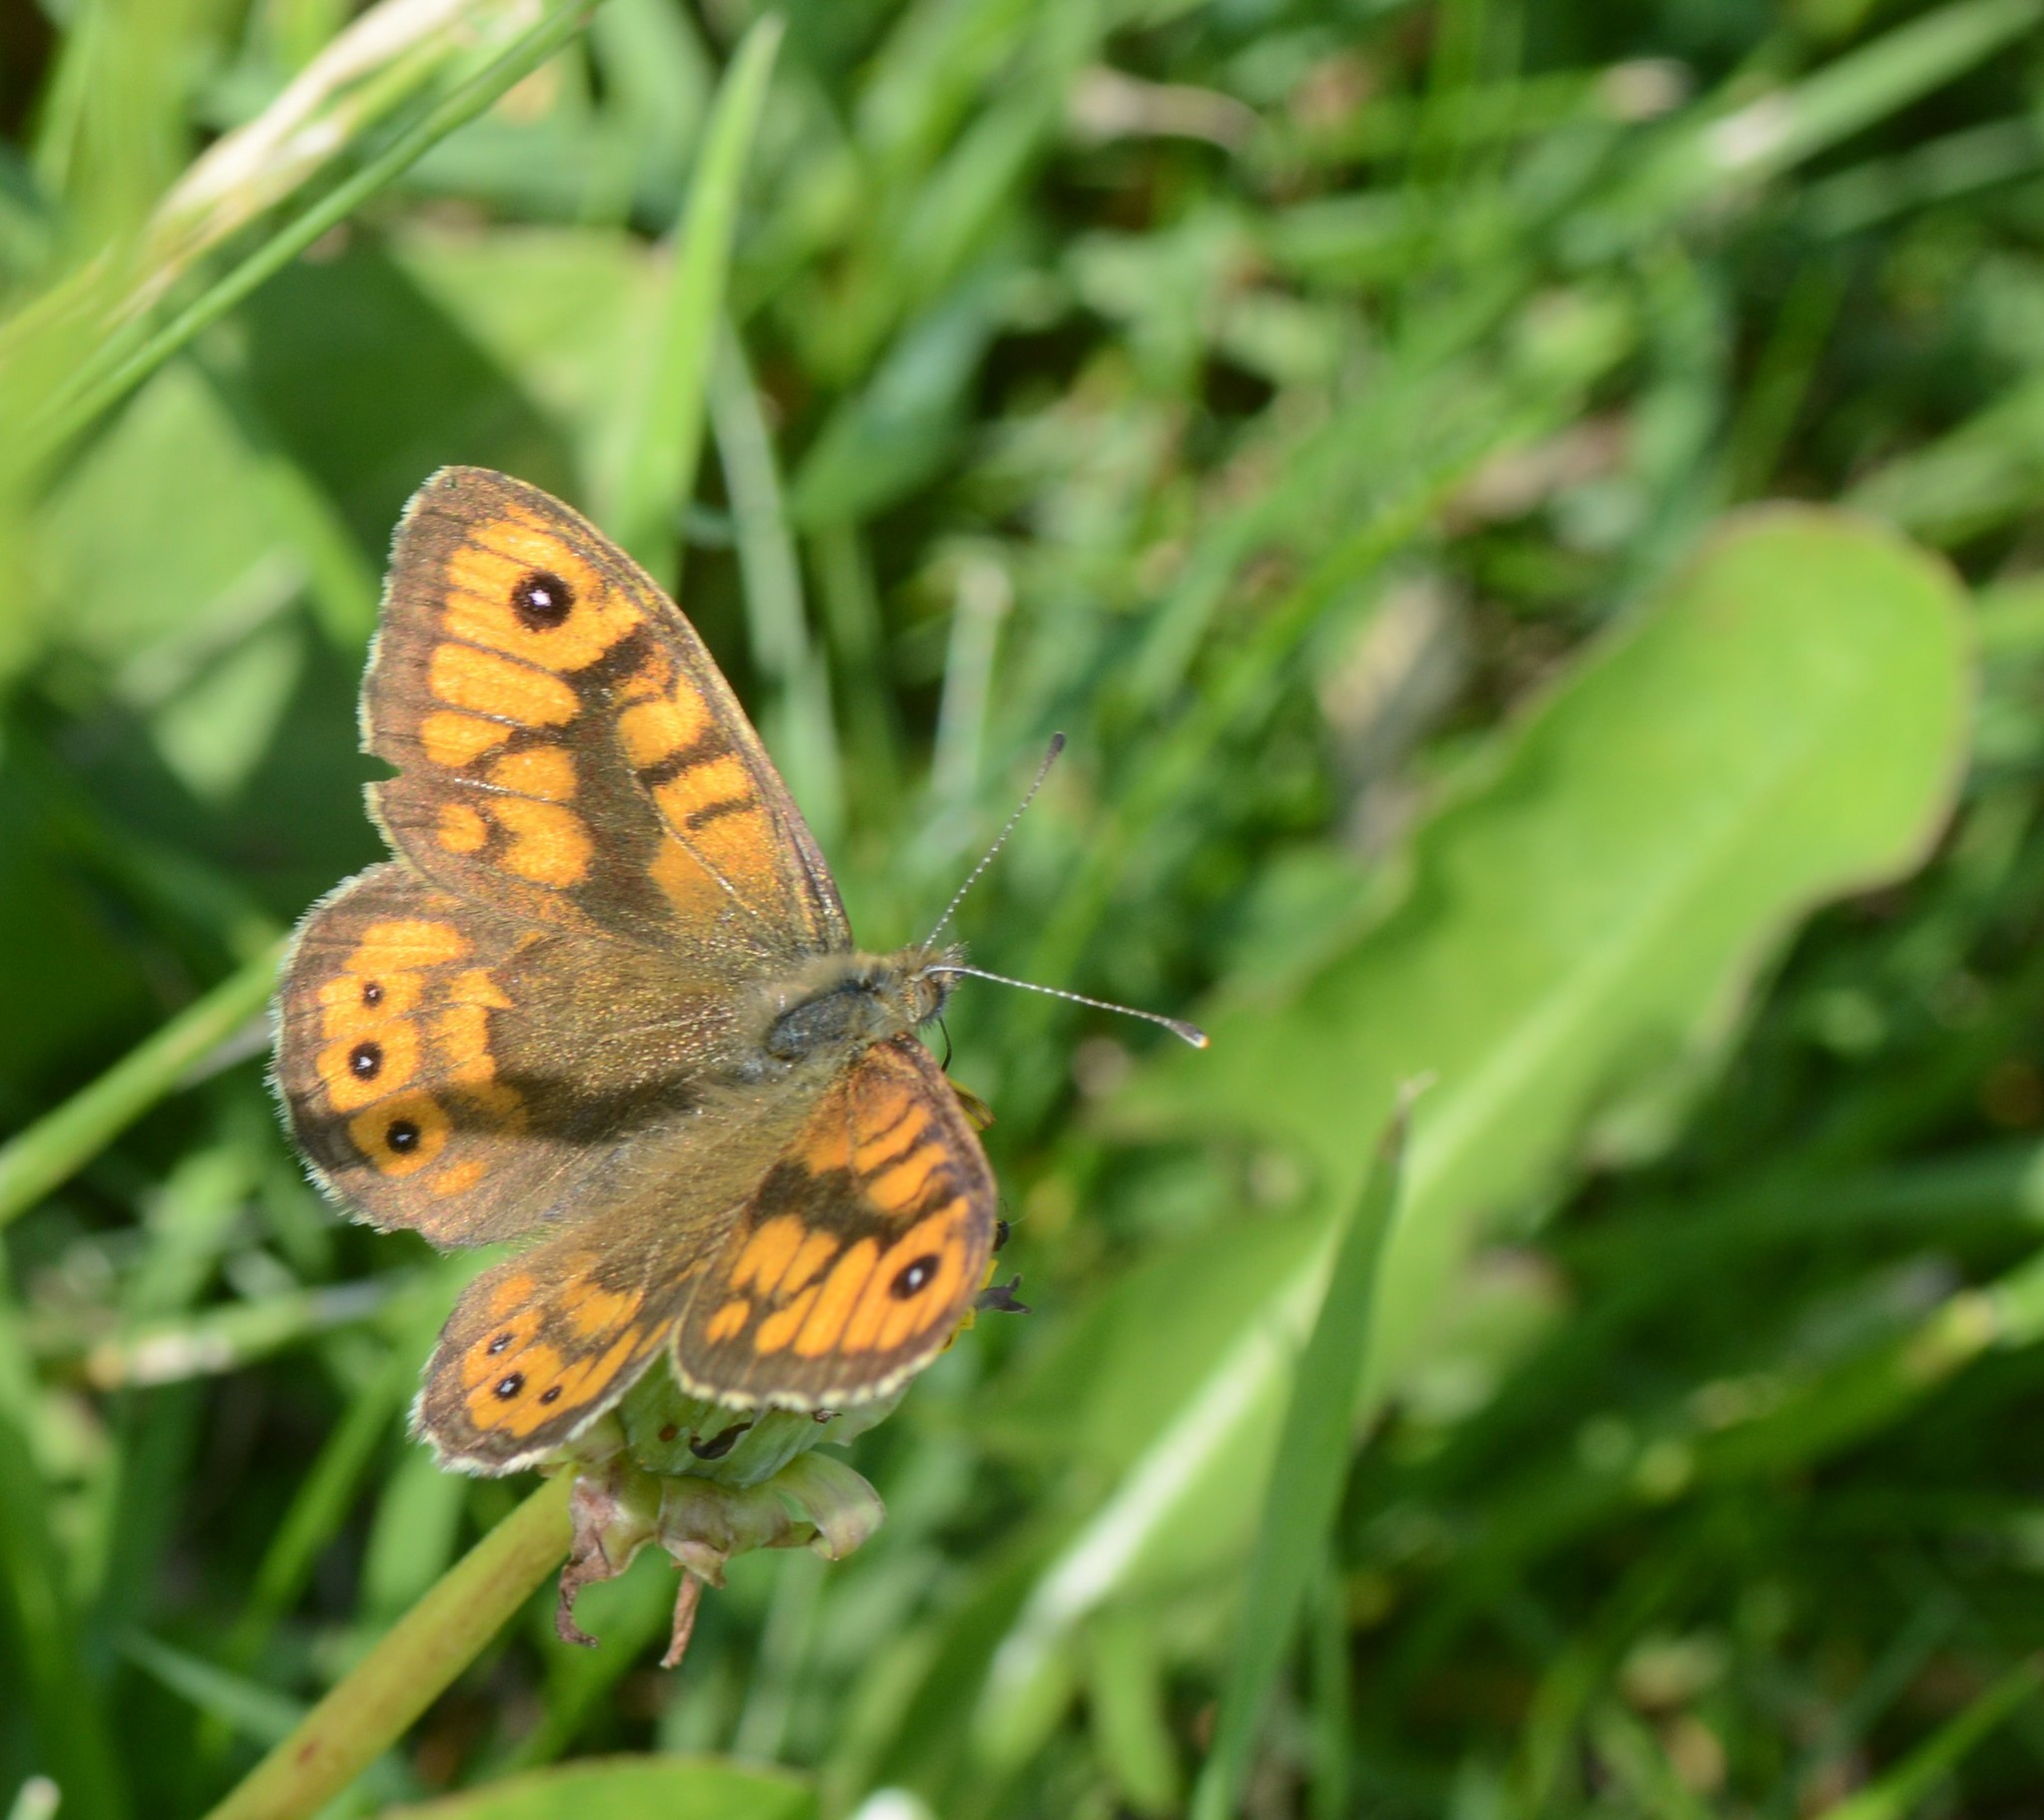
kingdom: Animalia
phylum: Arthropoda
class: Insecta
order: Lepidoptera
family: Nymphalidae
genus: Pararge
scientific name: Pararge Lasiommata megera
